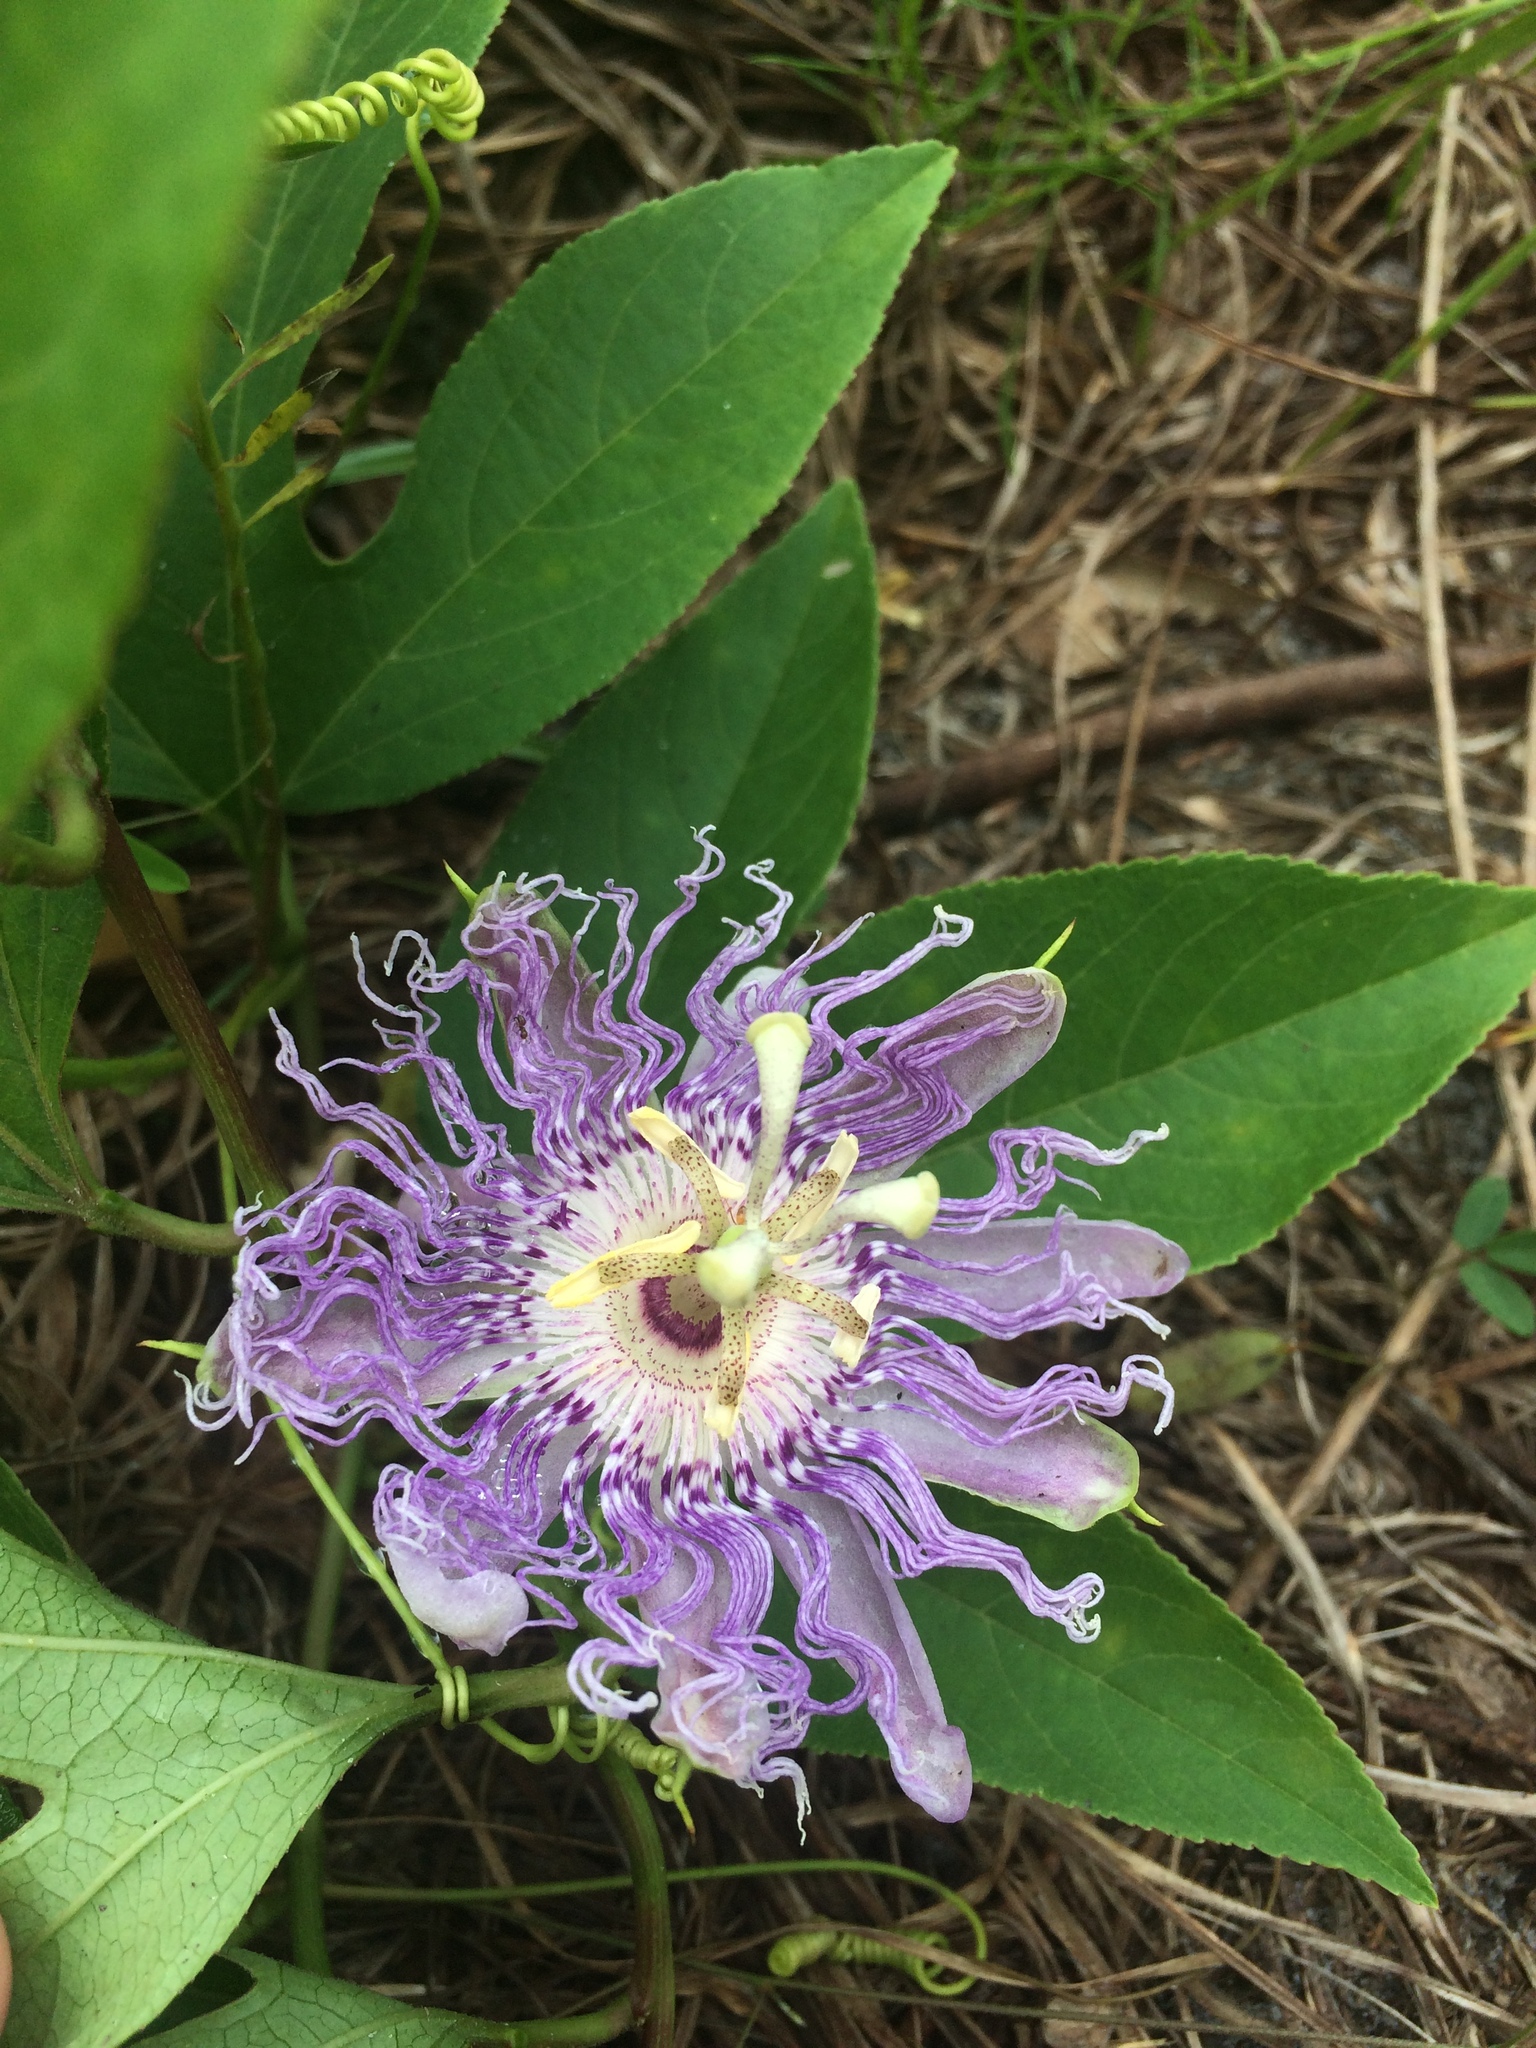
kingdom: Plantae
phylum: Tracheophyta
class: Magnoliopsida
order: Malpighiales
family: Passifloraceae
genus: Passiflora
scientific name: Passiflora incarnata
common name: Apricot-vine
